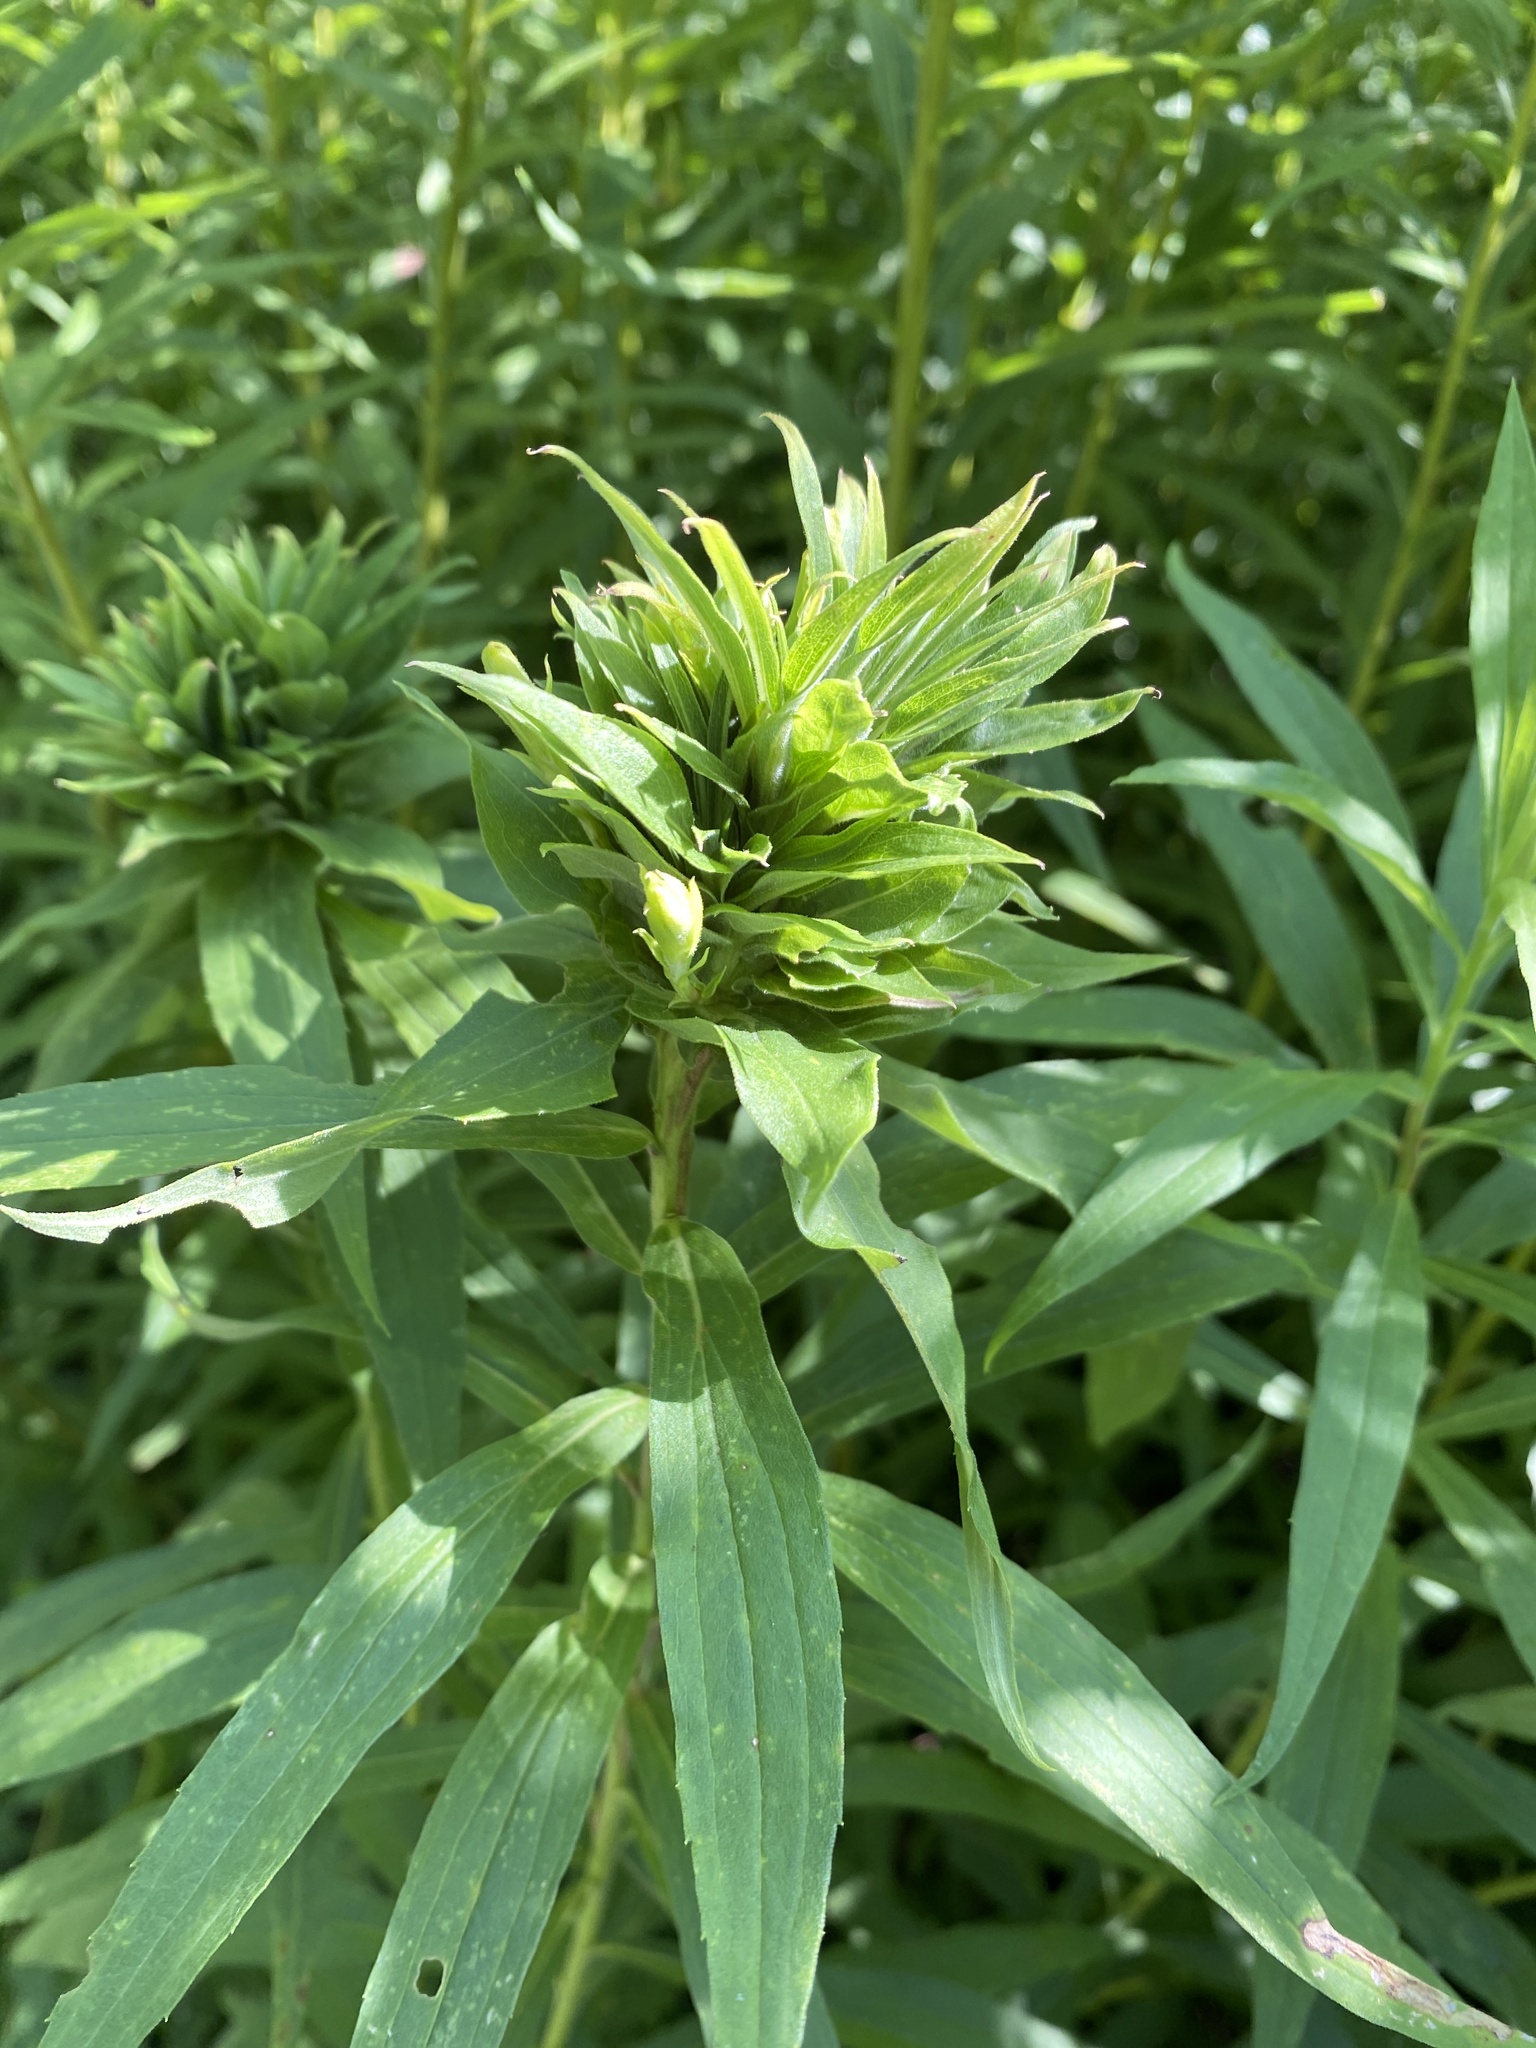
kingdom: Animalia
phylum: Arthropoda
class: Insecta
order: Diptera
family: Cecidomyiidae
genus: Rhopalomyia
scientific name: Rhopalomyia solidaginis
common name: Goldenrod bunch gall midge
